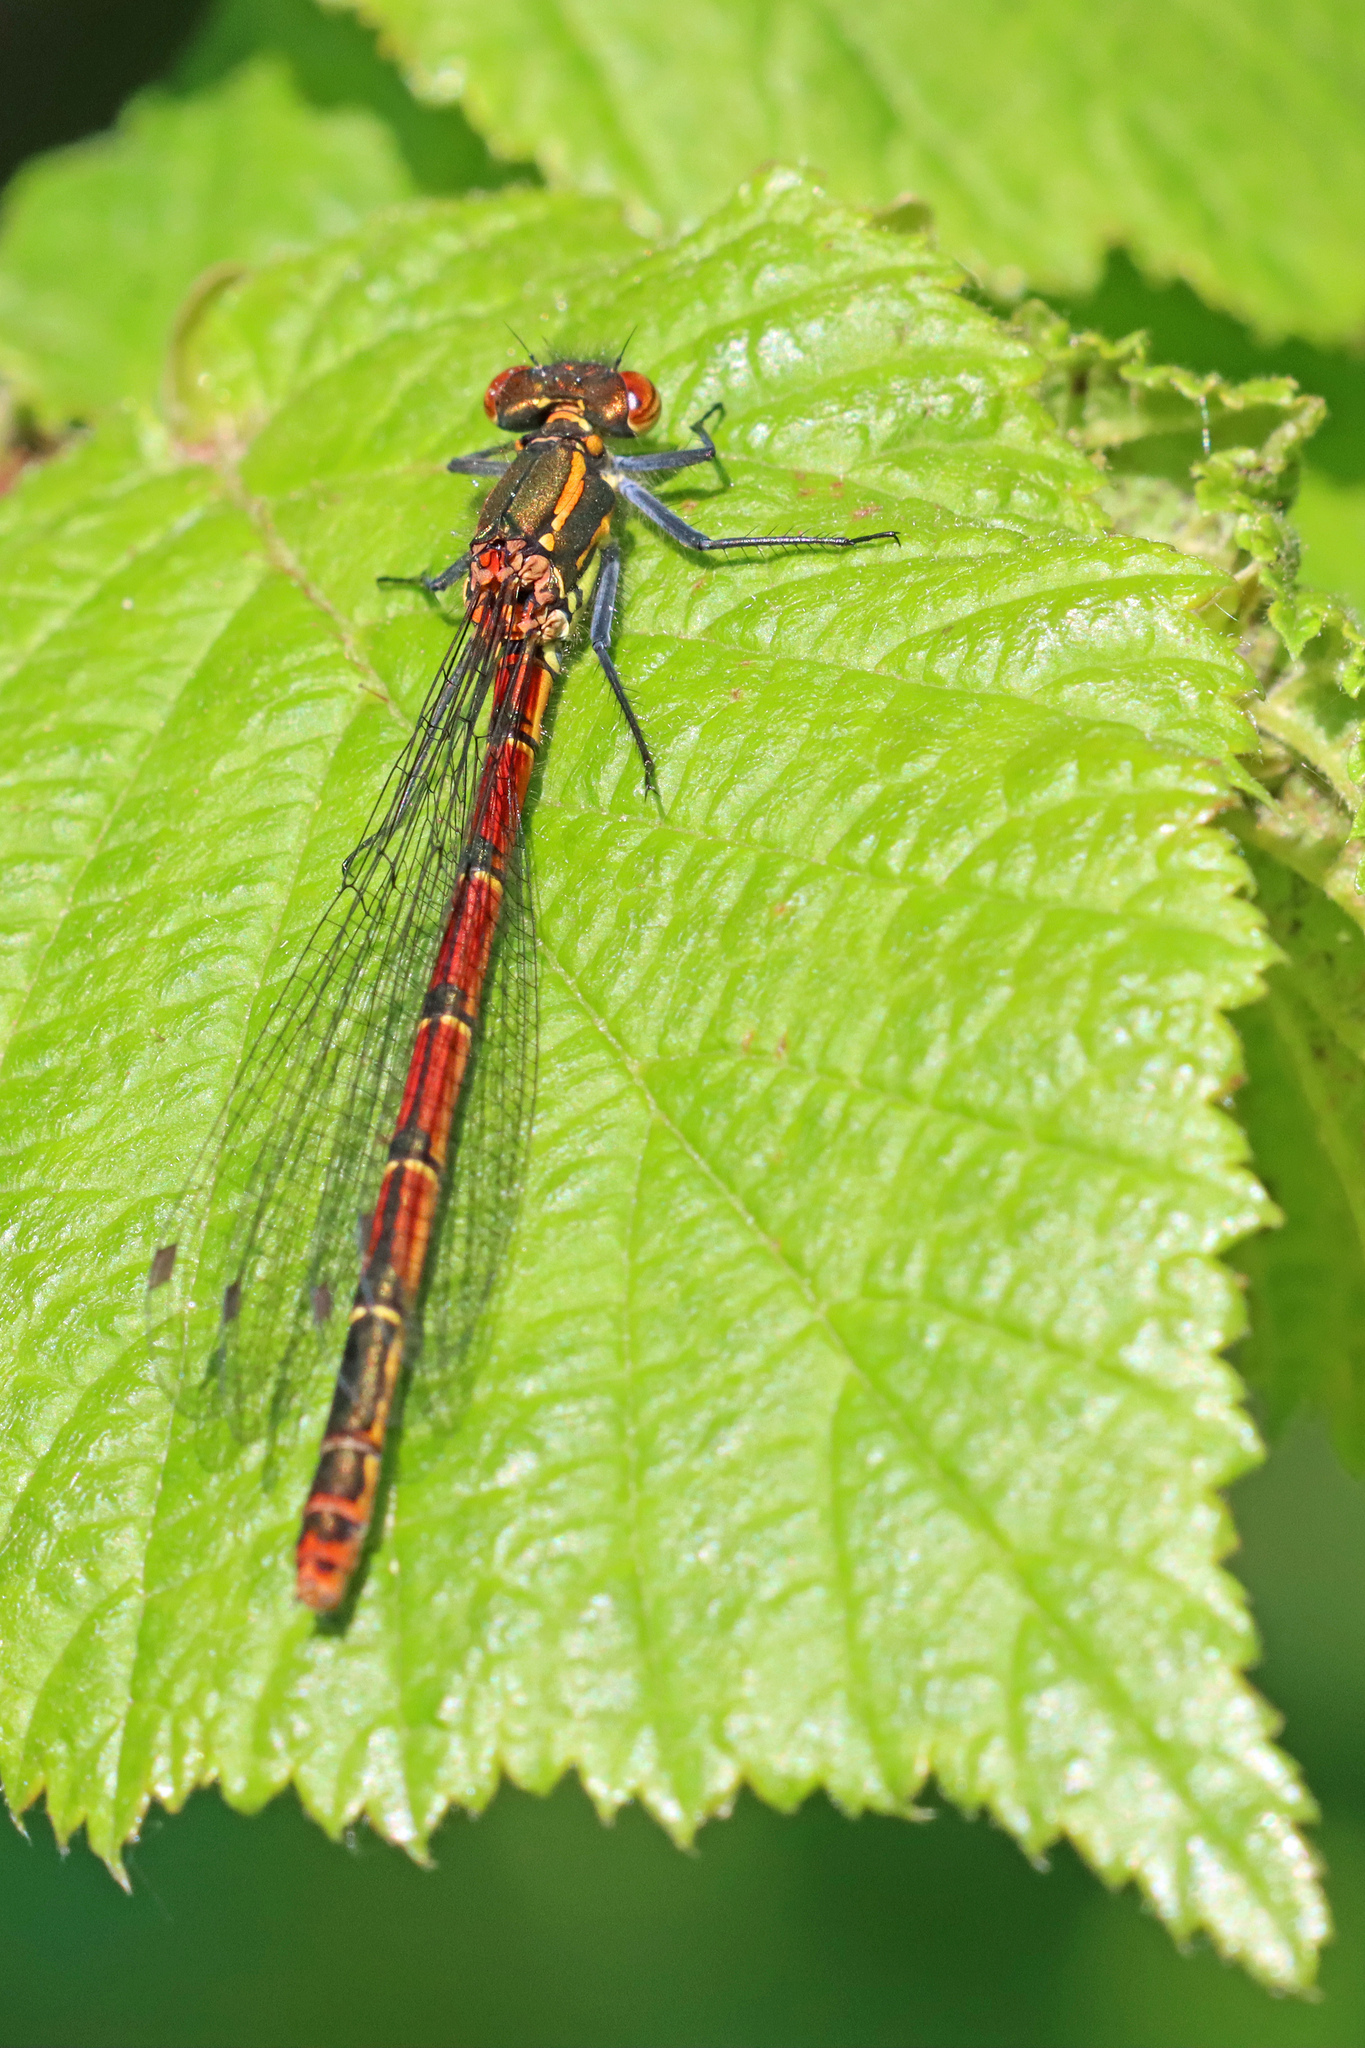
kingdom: Animalia
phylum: Arthropoda
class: Insecta
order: Odonata
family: Coenagrionidae
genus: Pyrrhosoma
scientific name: Pyrrhosoma nymphula
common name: Large red damsel
